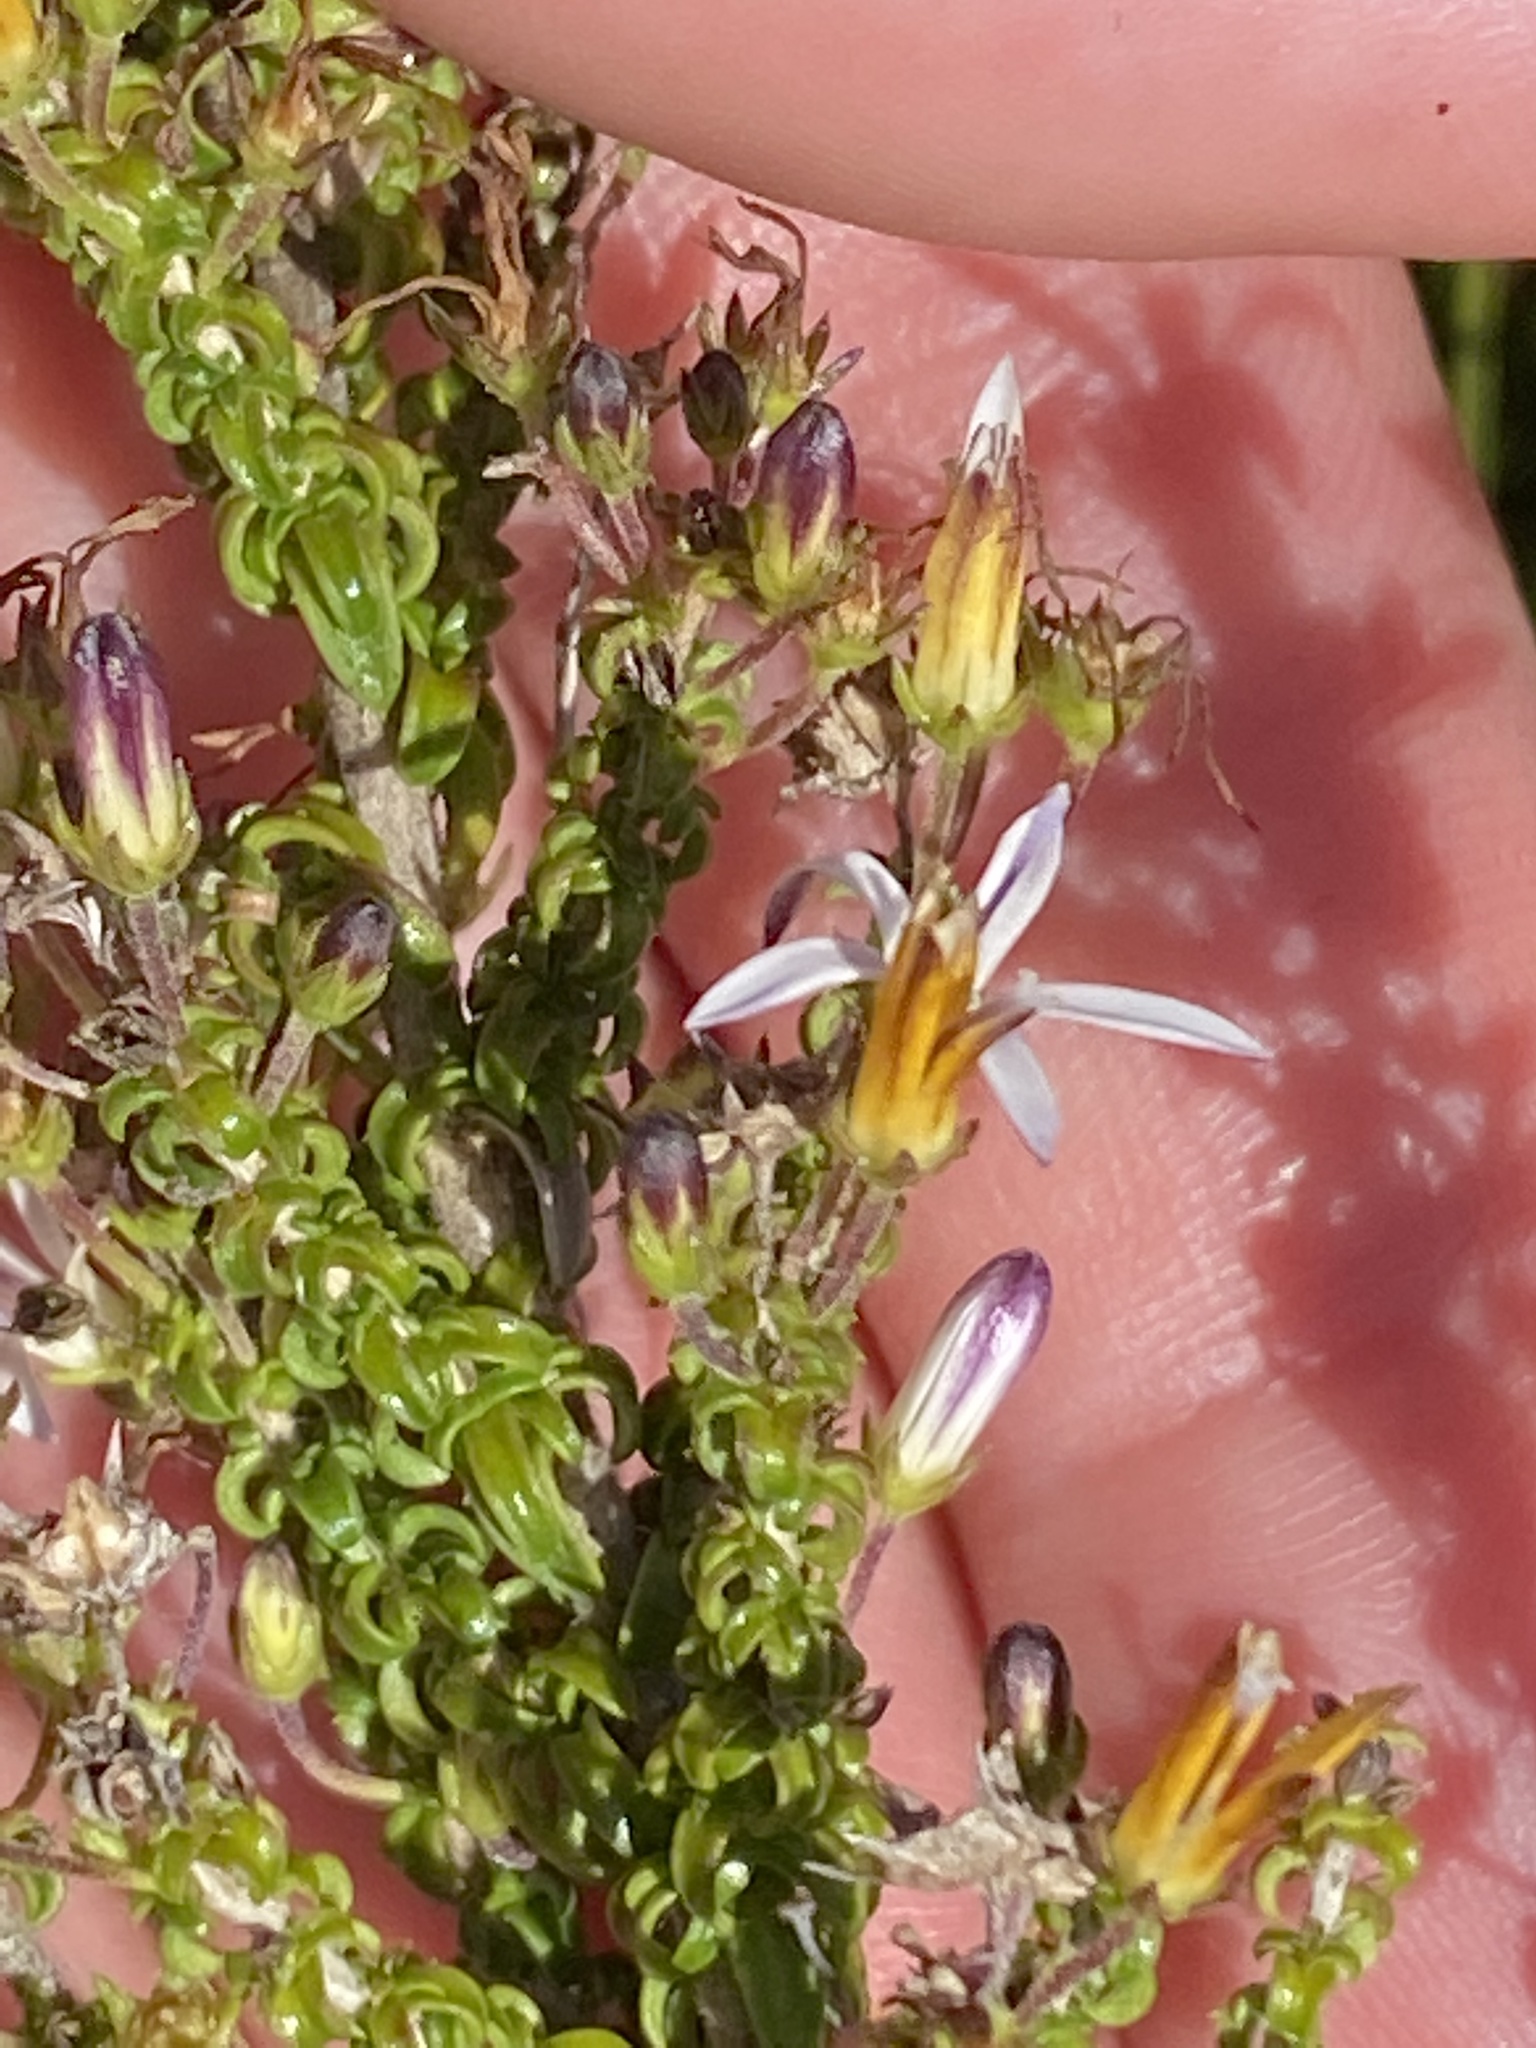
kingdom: Plantae
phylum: Tracheophyta
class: Magnoliopsida
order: Asterales
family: Campanulaceae
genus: Wahlenbergia
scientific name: Wahlenbergia tenella
